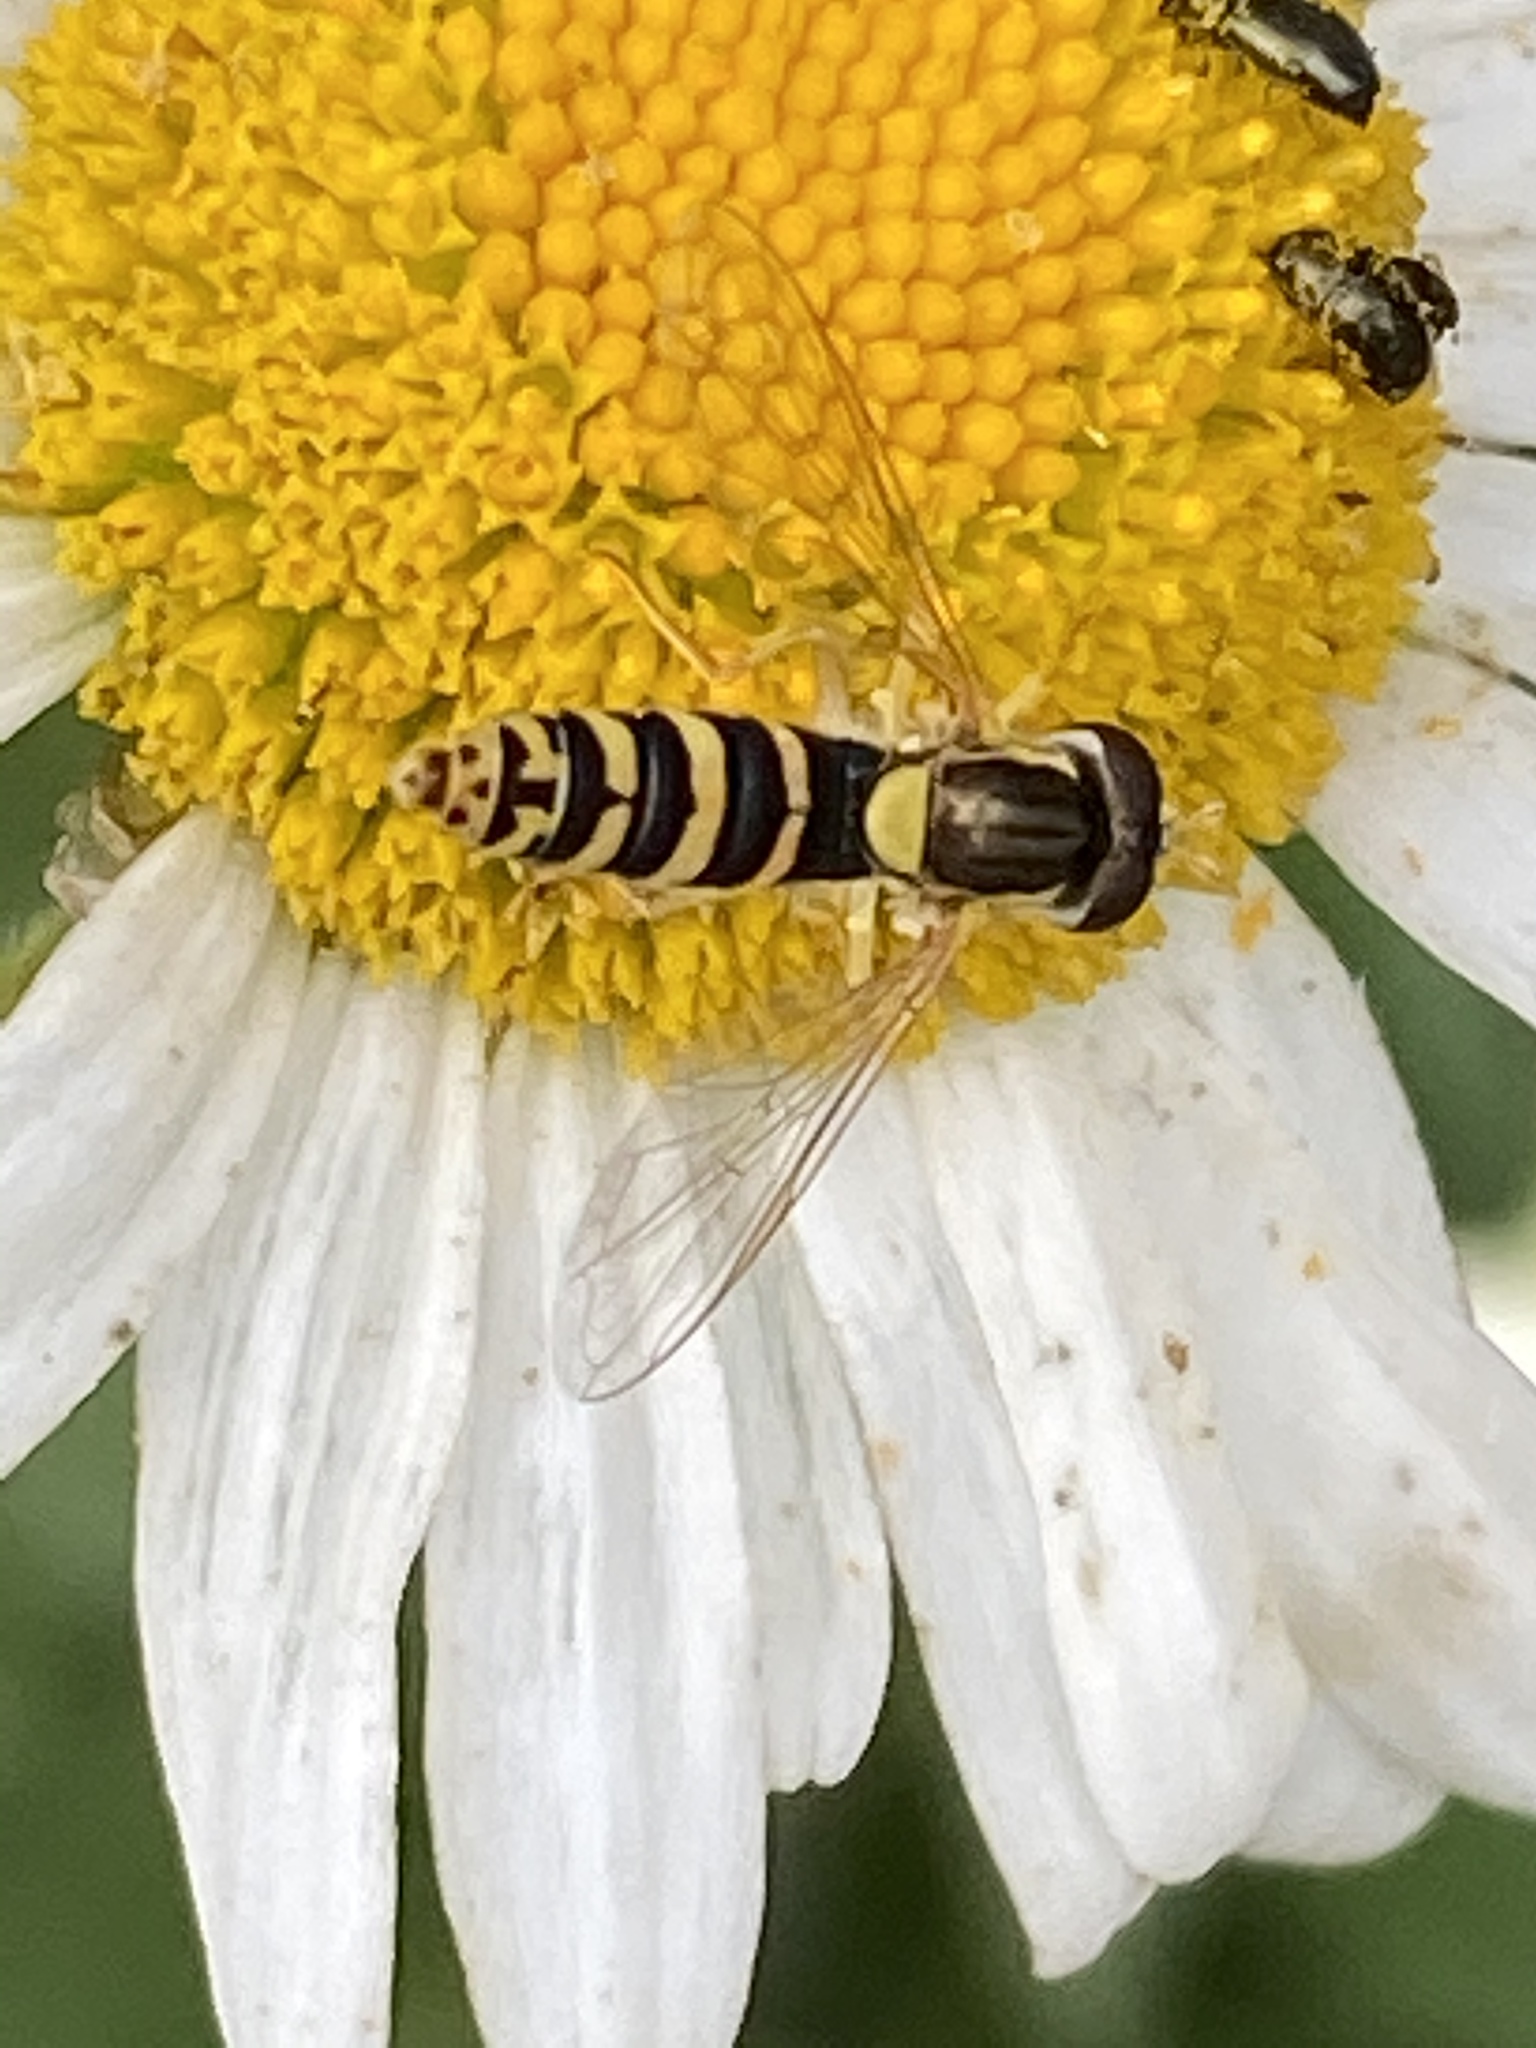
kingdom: Animalia
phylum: Arthropoda
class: Insecta
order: Diptera
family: Syrphidae
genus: Sphaerophoria
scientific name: Sphaerophoria
